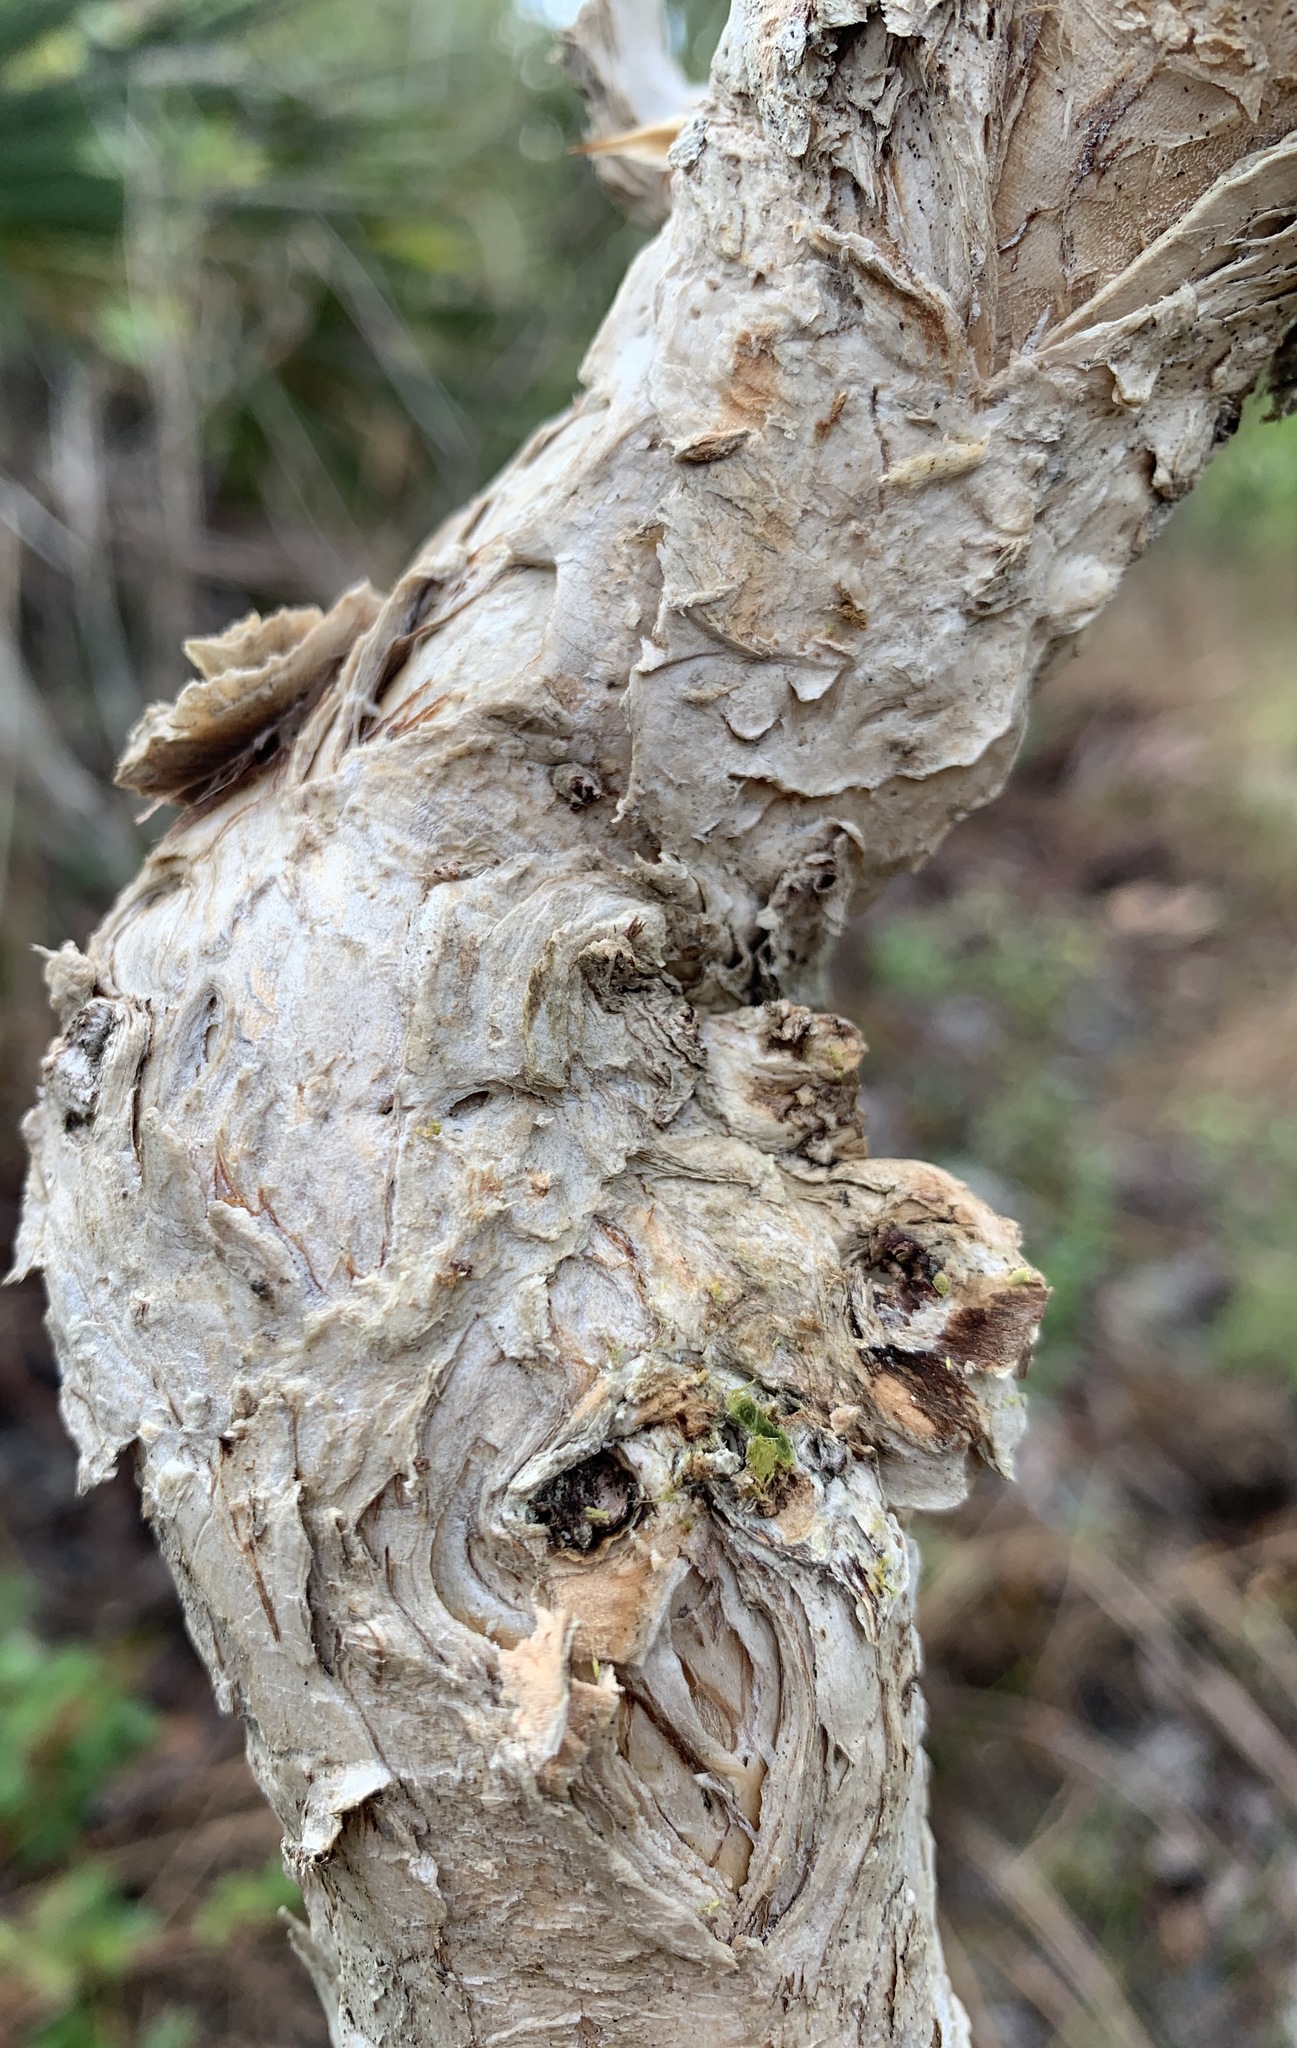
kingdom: Plantae
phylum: Tracheophyta
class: Magnoliopsida
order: Myrtales
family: Myrtaceae
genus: Melaleuca
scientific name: Melaleuca quinquenervia
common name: Punktree
